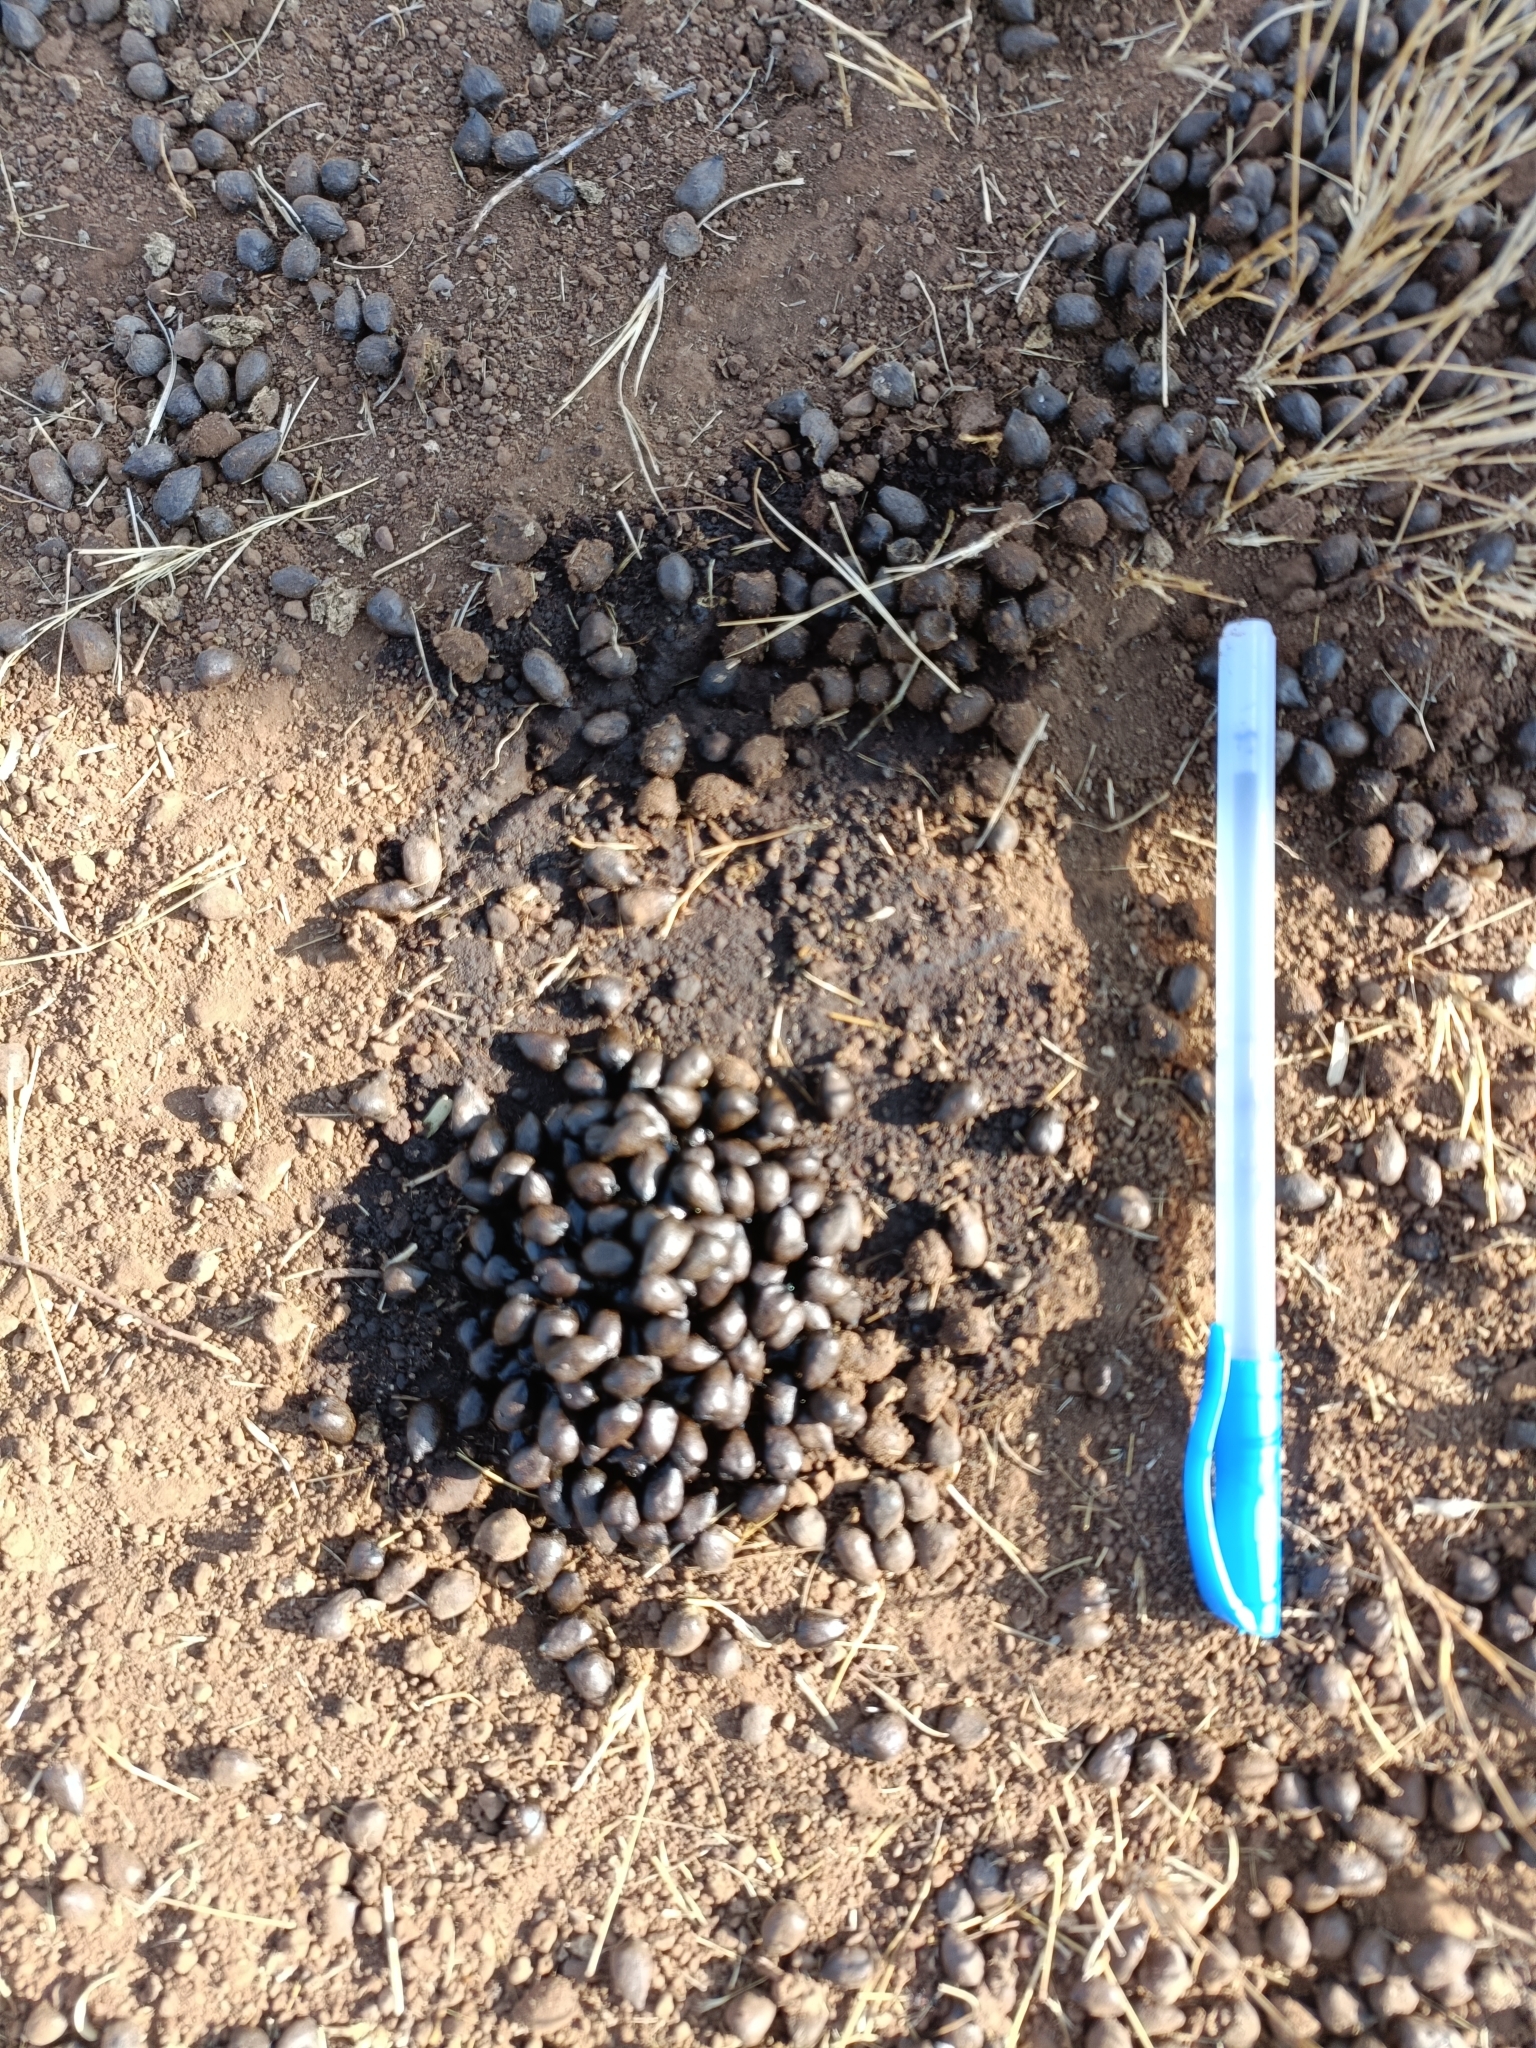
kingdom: Animalia
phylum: Chordata
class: Mammalia
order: Artiodactyla
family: Bovidae
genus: Gazella
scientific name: Gazella bennettii
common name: Indian gazelle
